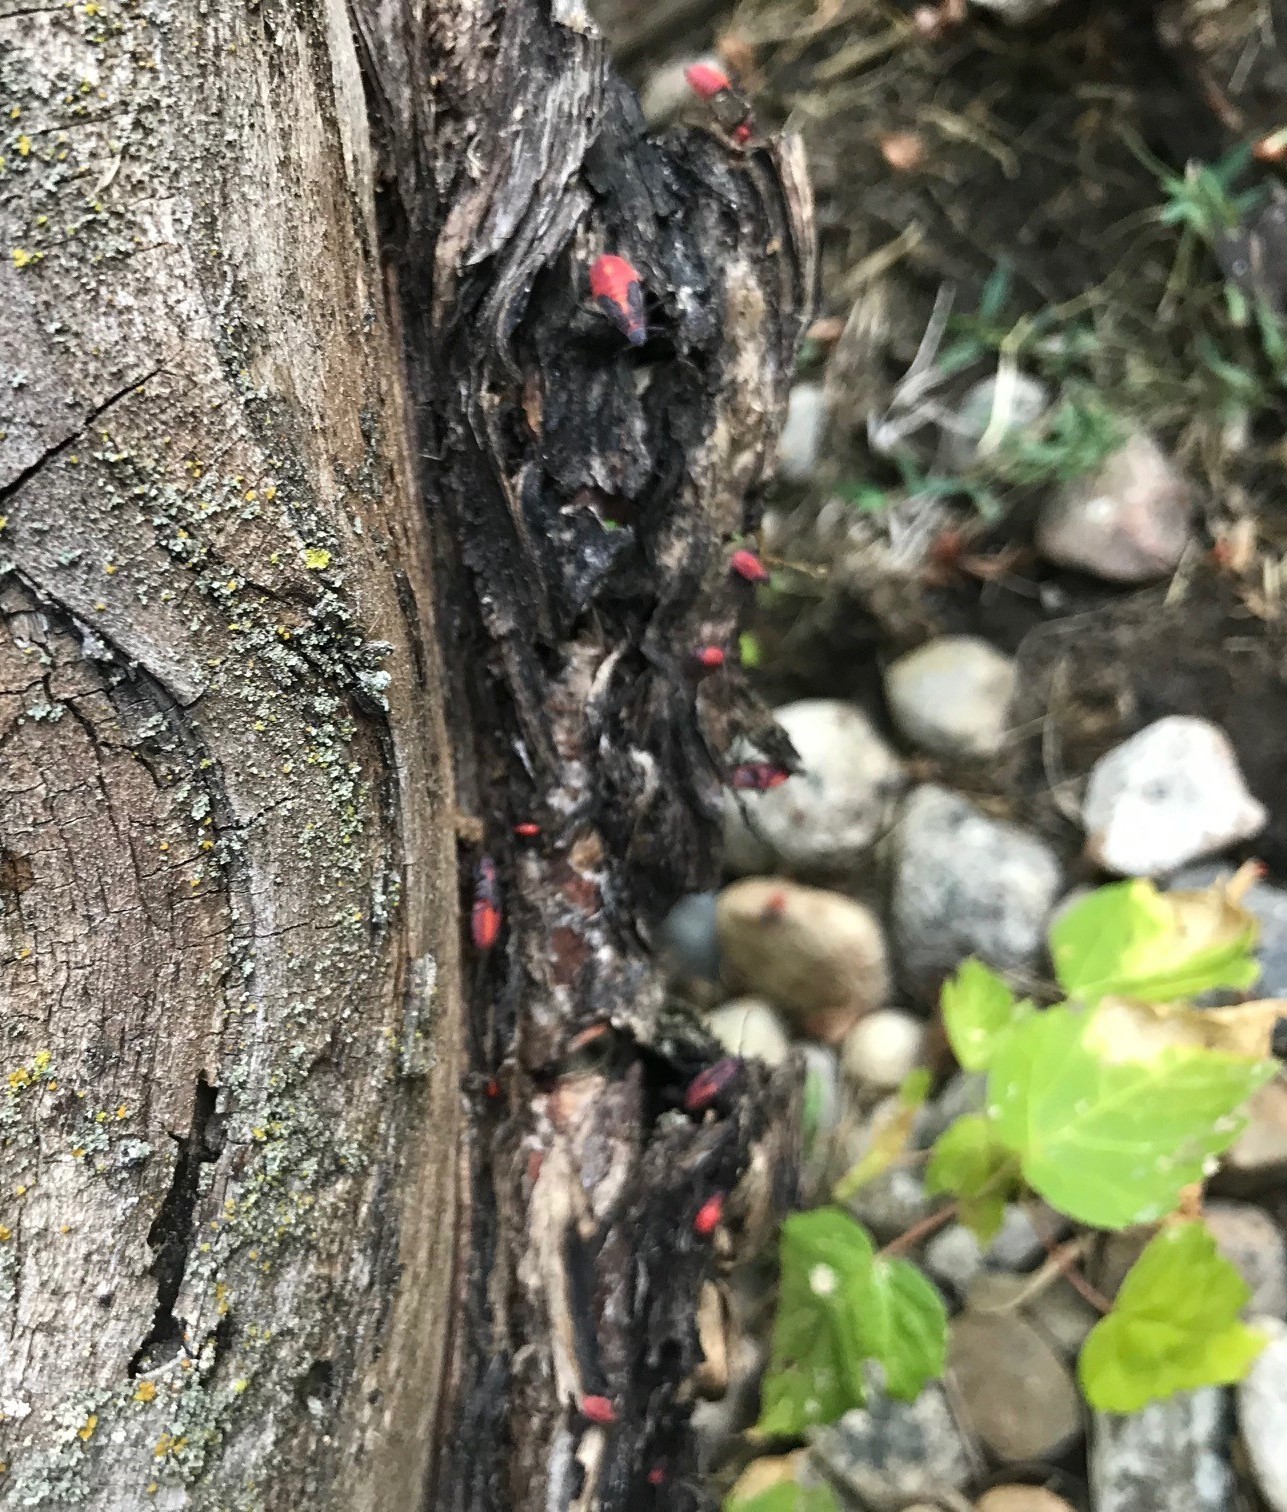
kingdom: Animalia
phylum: Arthropoda
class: Insecta
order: Hemiptera
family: Rhopalidae
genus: Boisea
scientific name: Boisea trivittata
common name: Boxelder bug
